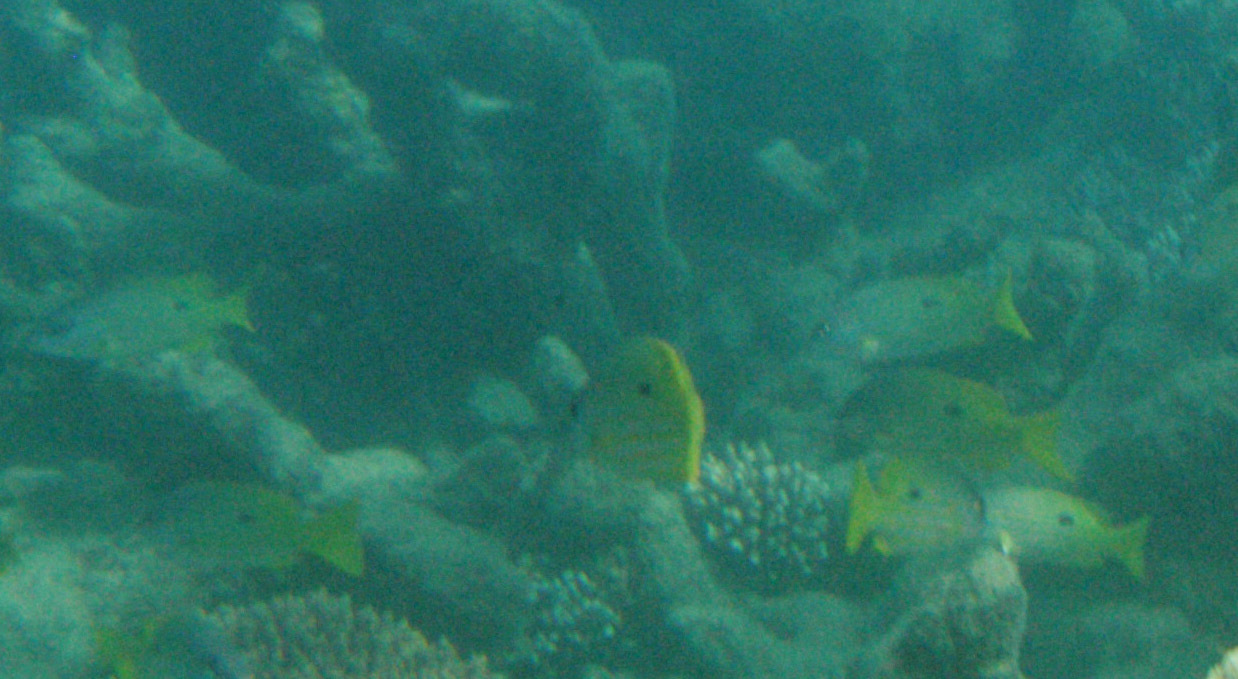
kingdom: Animalia
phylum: Chordata
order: Perciformes
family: Lutjanidae
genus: Lutjanus
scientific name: Lutjanus fulviflamma
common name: Blackspot snapper
